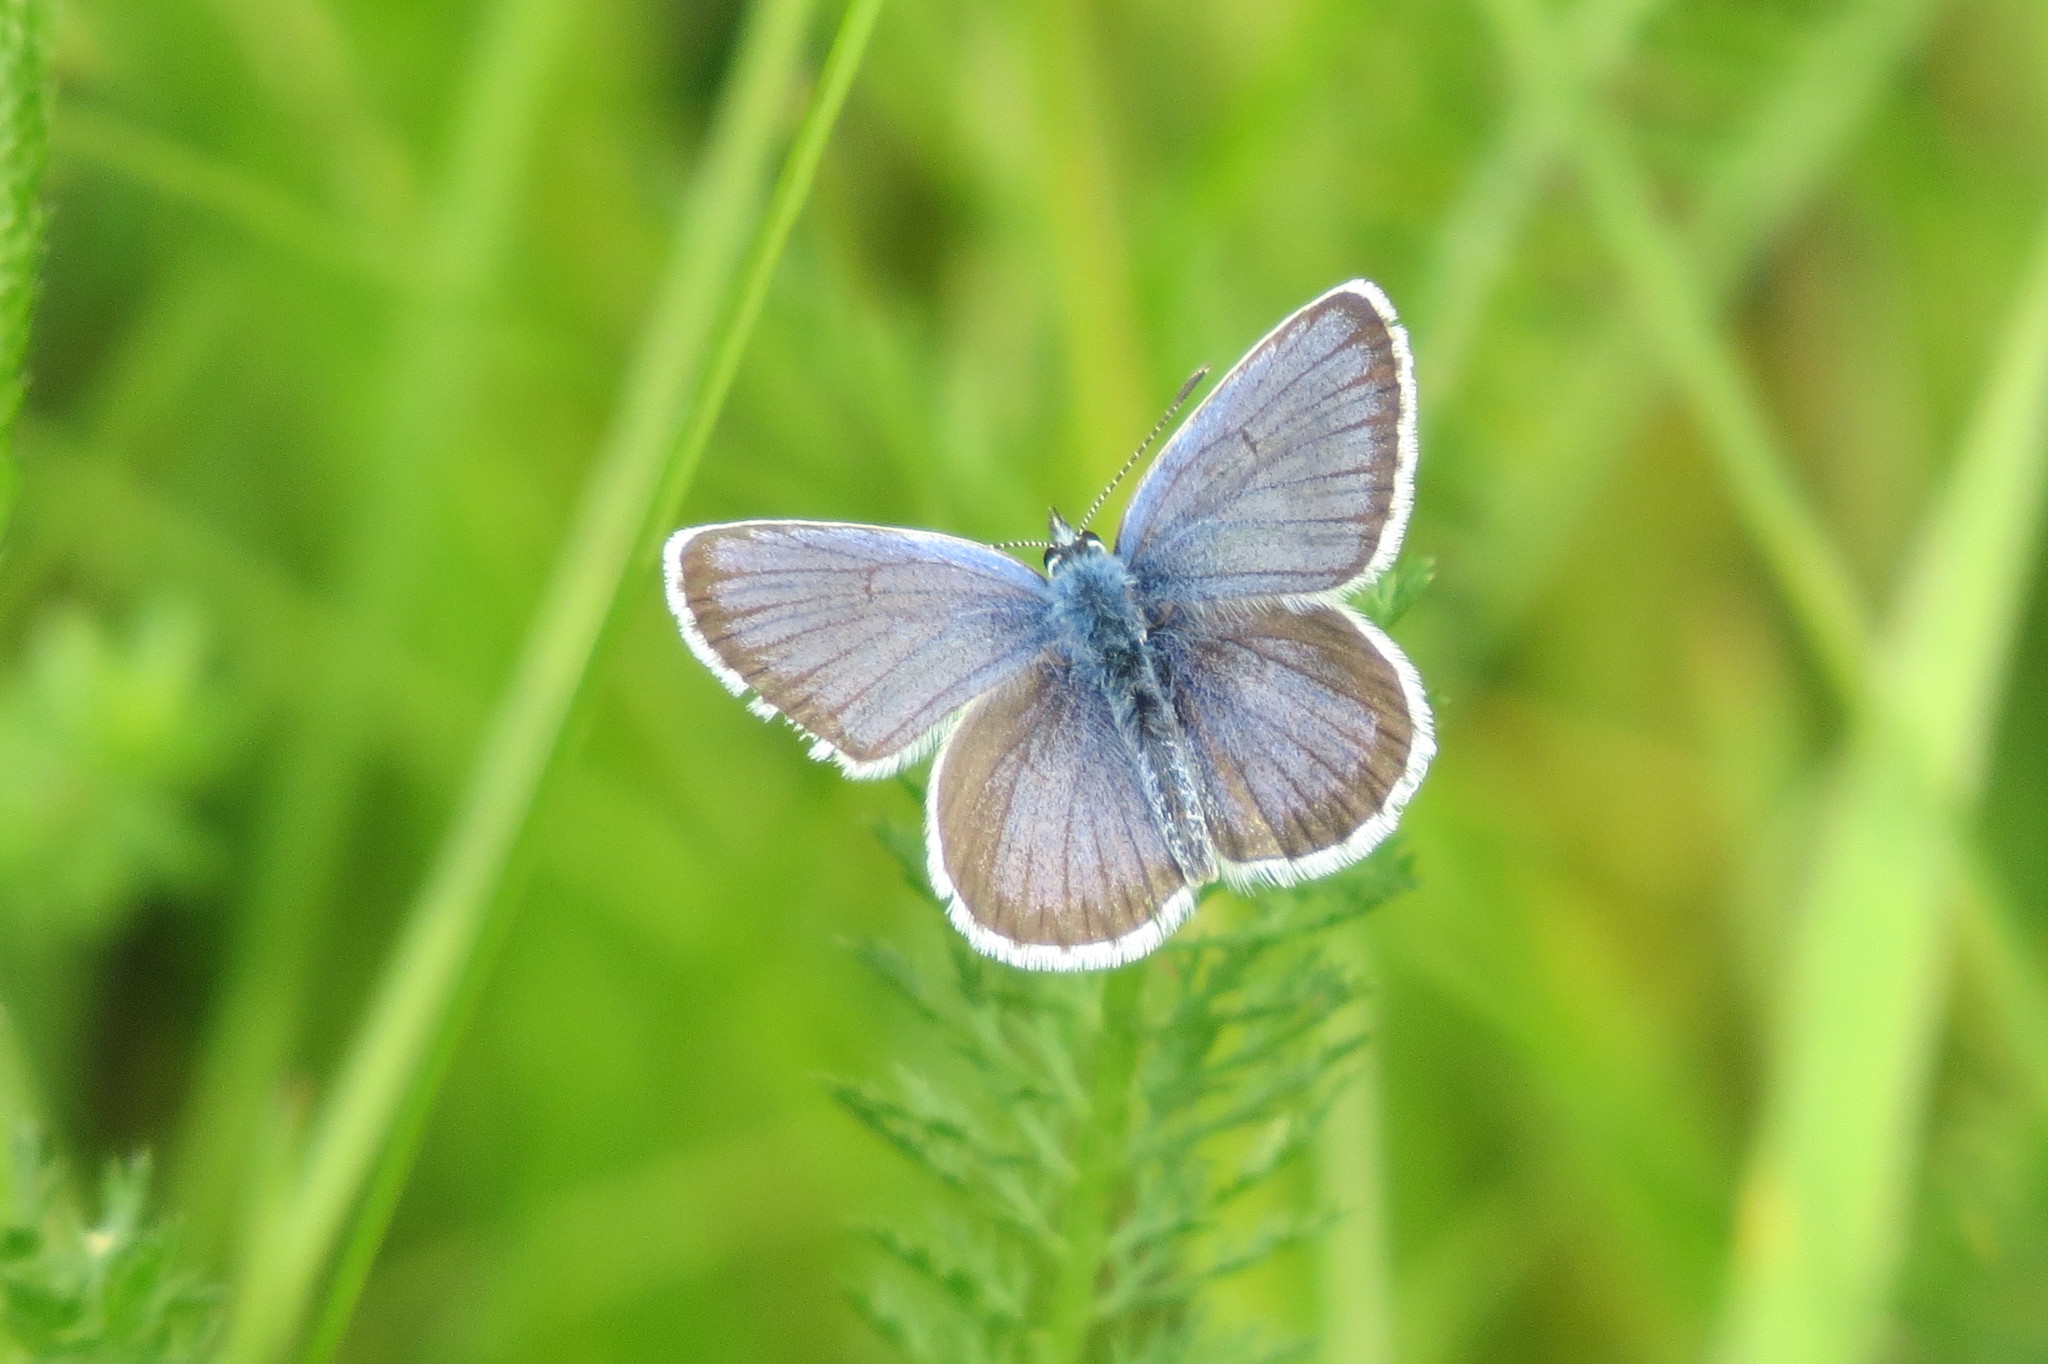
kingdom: Animalia
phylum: Arthropoda
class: Insecta
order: Lepidoptera
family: Lycaenidae
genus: Plebejus
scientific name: Plebejus argus
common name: Silver-studded blue
